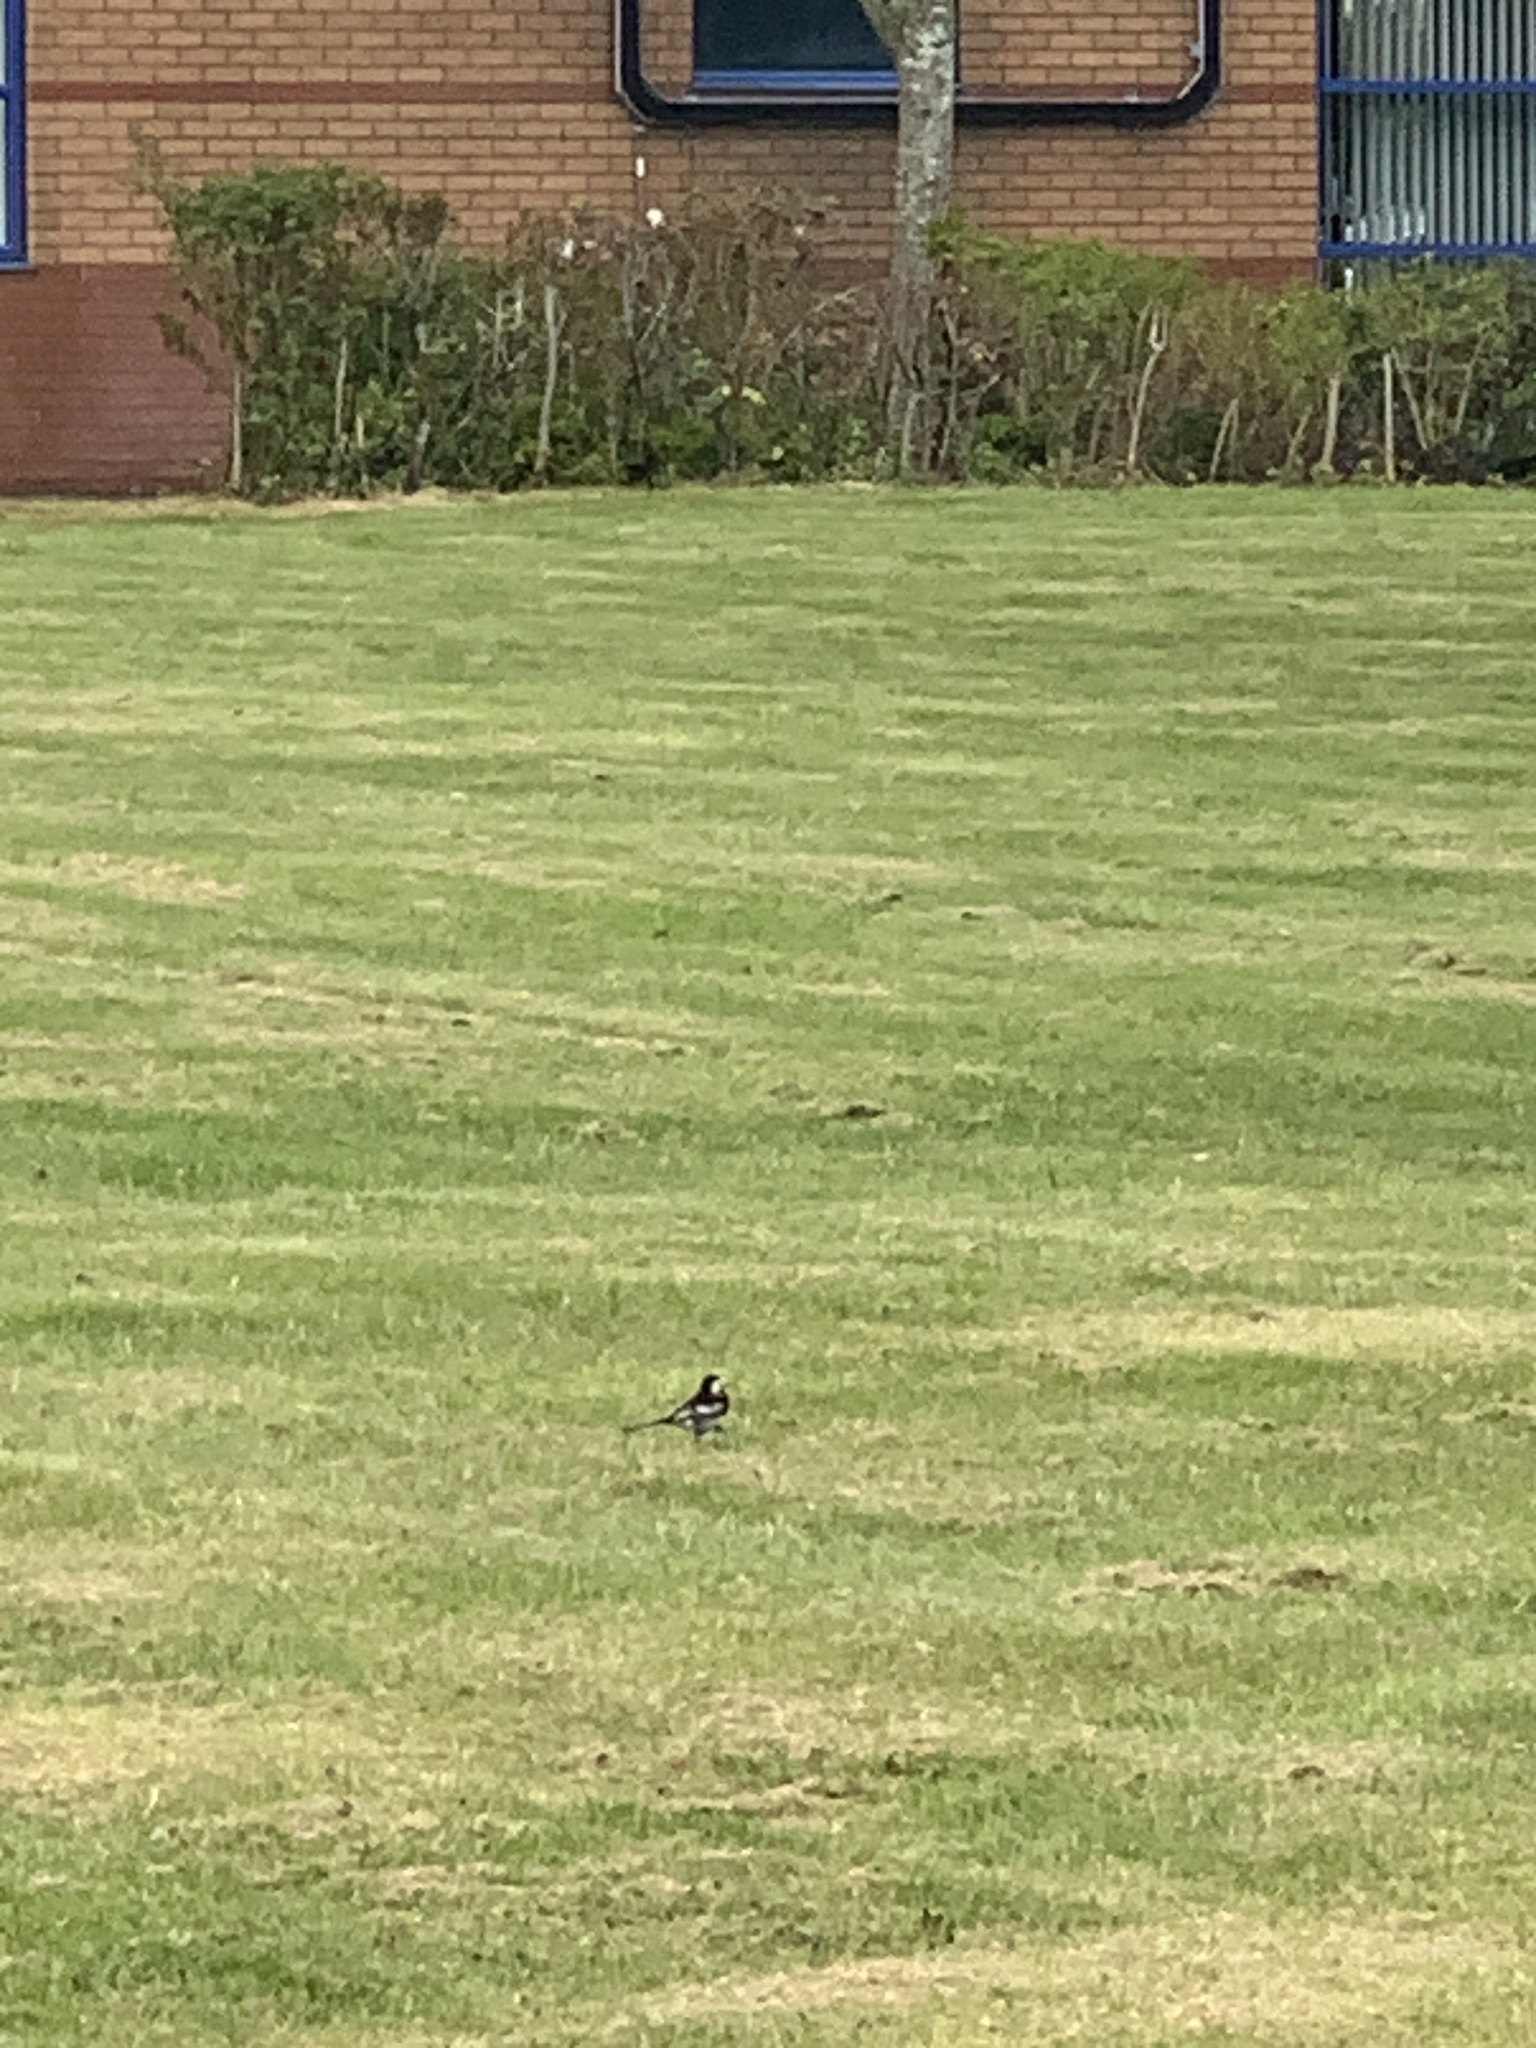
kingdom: Animalia
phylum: Chordata
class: Aves
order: Passeriformes
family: Motacillidae
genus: Motacilla
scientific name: Motacilla alba
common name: White wagtail
